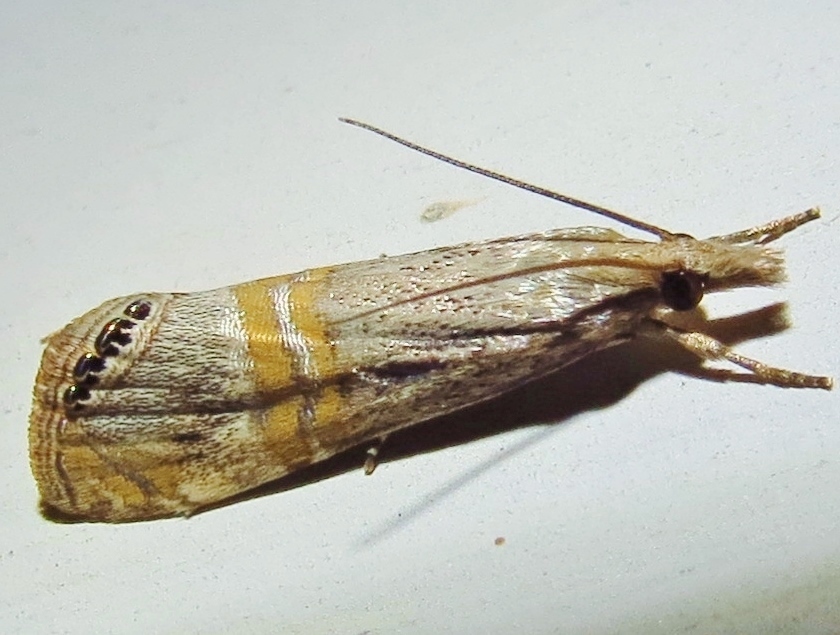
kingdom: Animalia
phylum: Arthropoda
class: Insecta
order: Lepidoptera
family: Crambidae
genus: Euchromius
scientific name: Euchromius ocellea
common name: Necklace veneer moth
